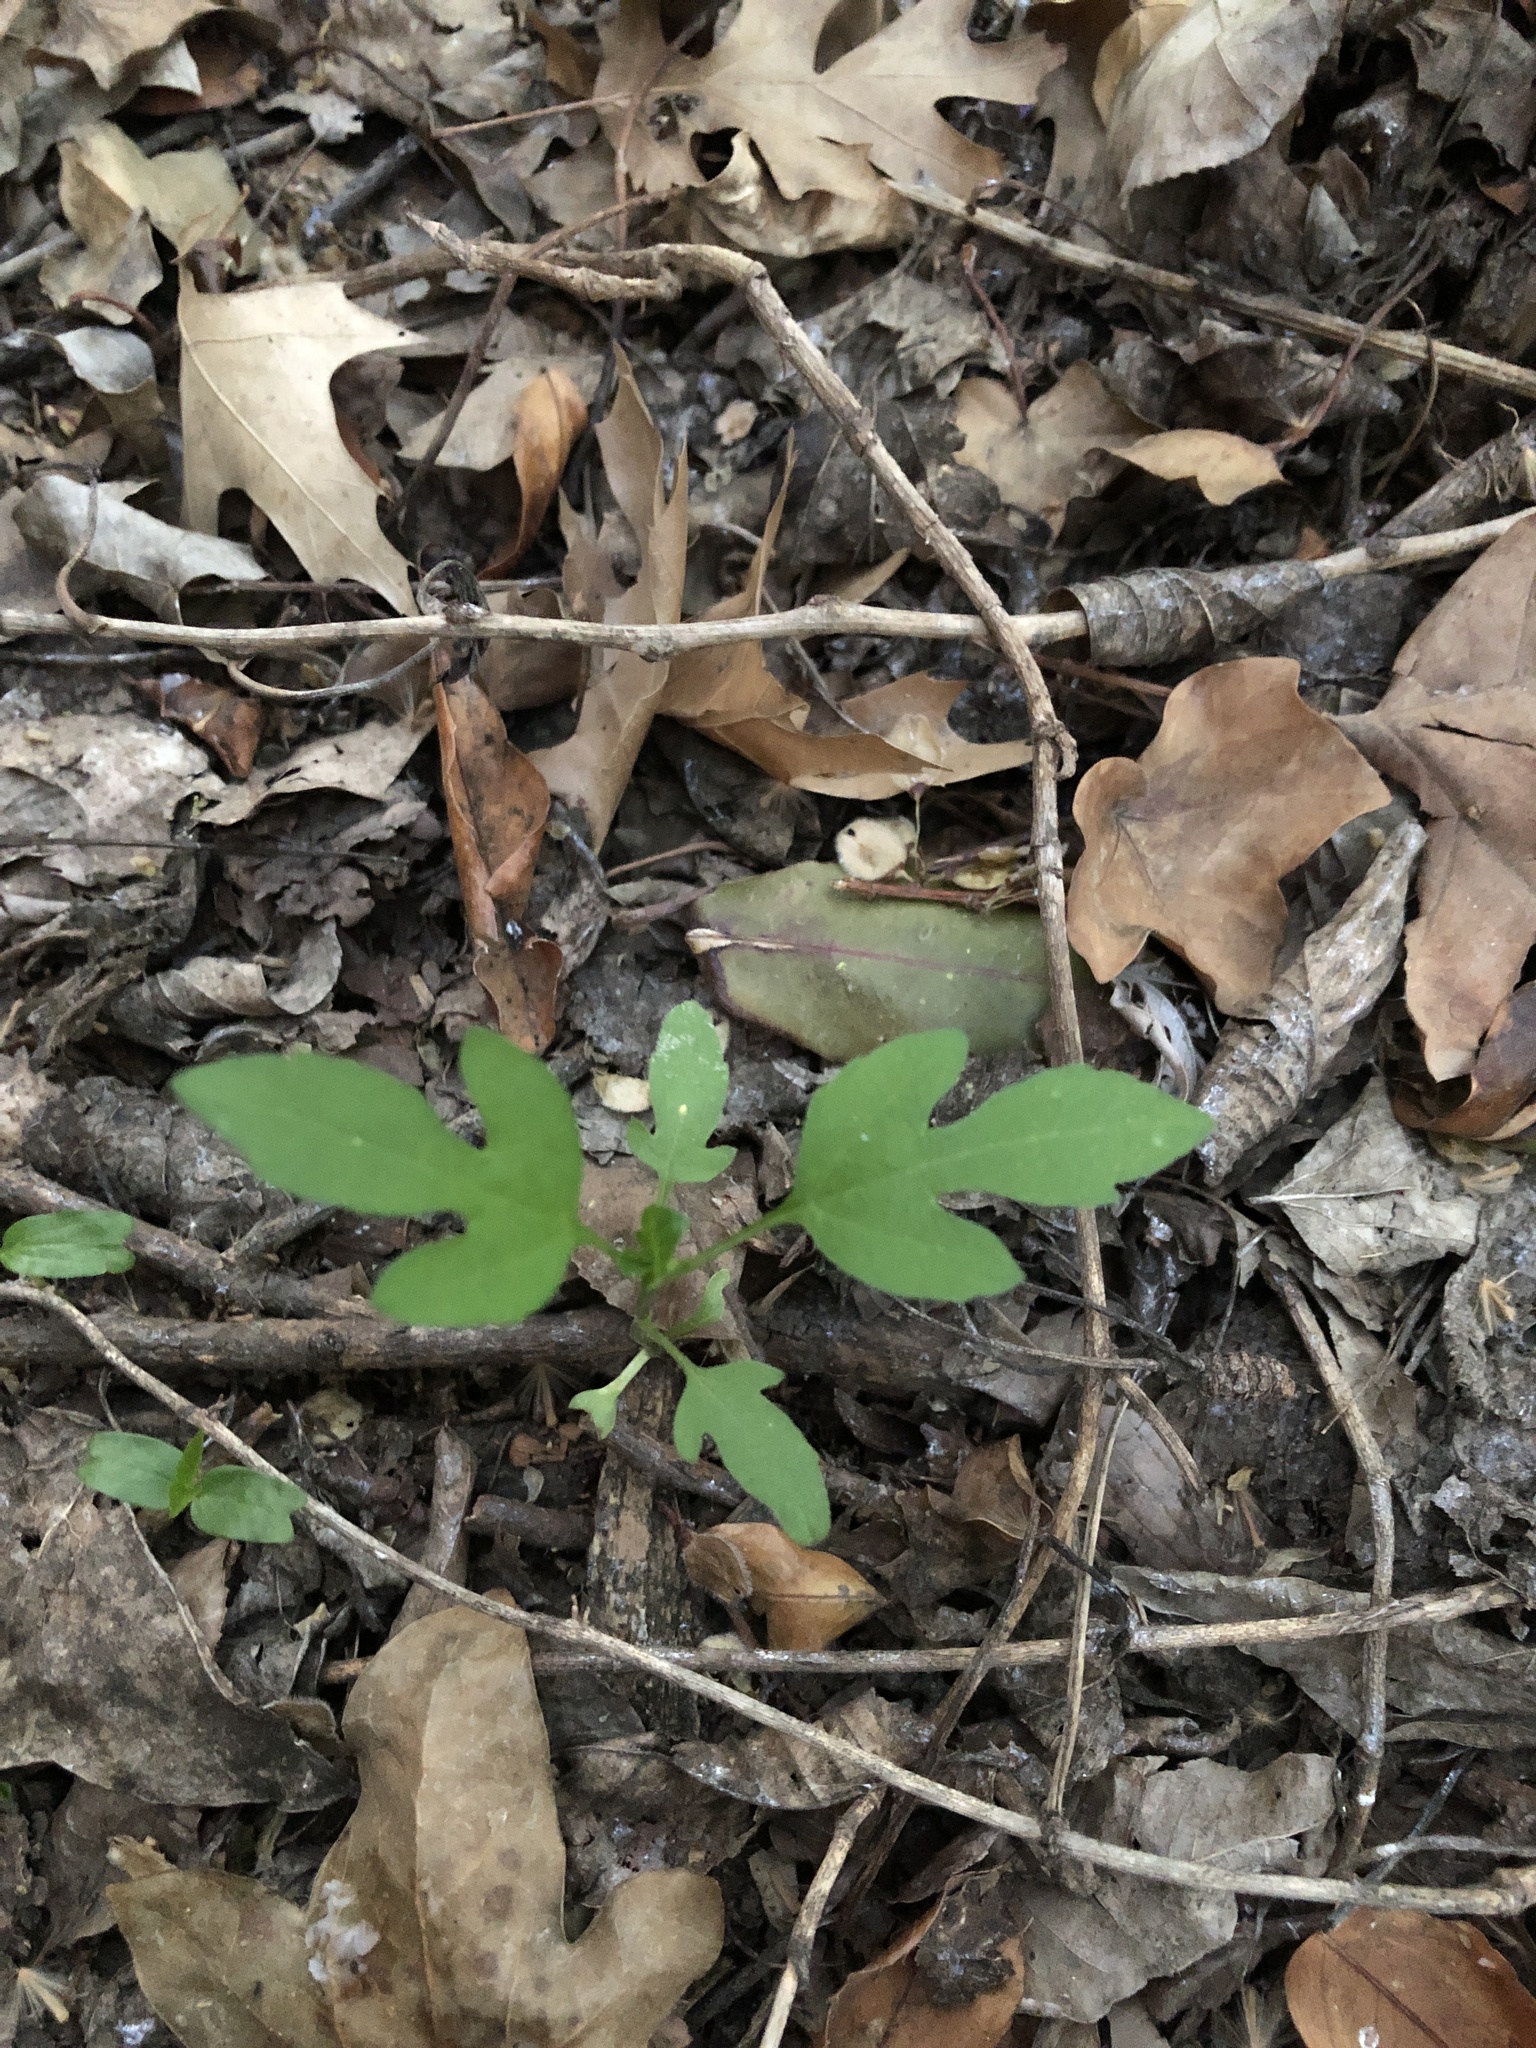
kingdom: Plantae
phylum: Tracheophyta
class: Magnoliopsida
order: Asterales
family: Asteraceae
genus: Ambrosia
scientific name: Ambrosia trifida
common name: Giant ragweed
